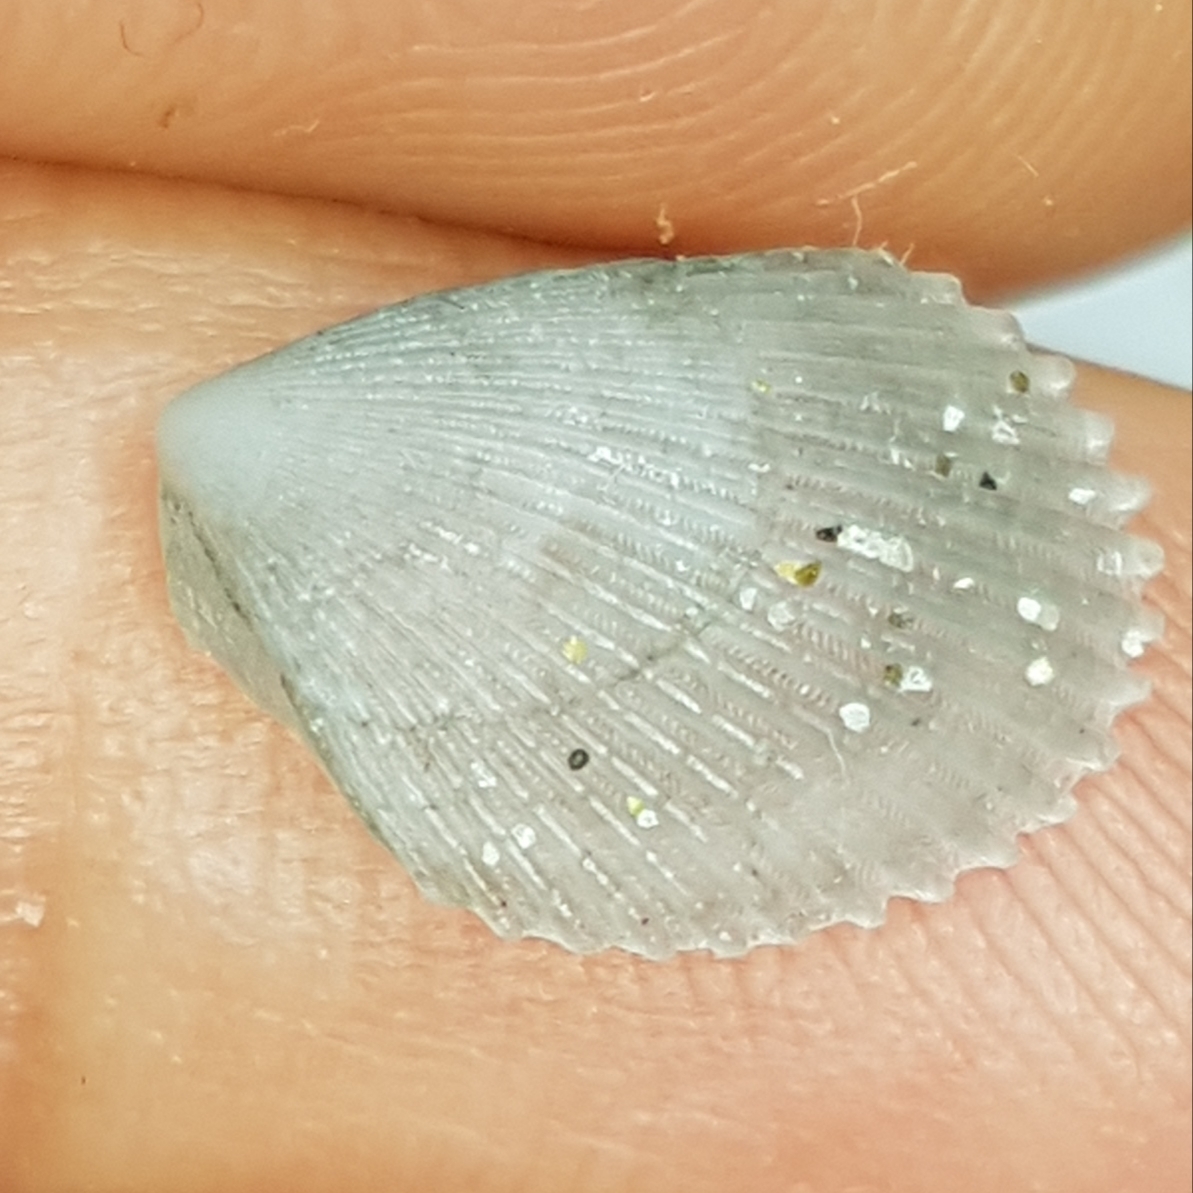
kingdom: Animalia
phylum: Mollusca
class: Bivalvia
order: Limida
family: Limidae
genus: Lima
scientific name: Lima lima
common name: Frilled file shell
